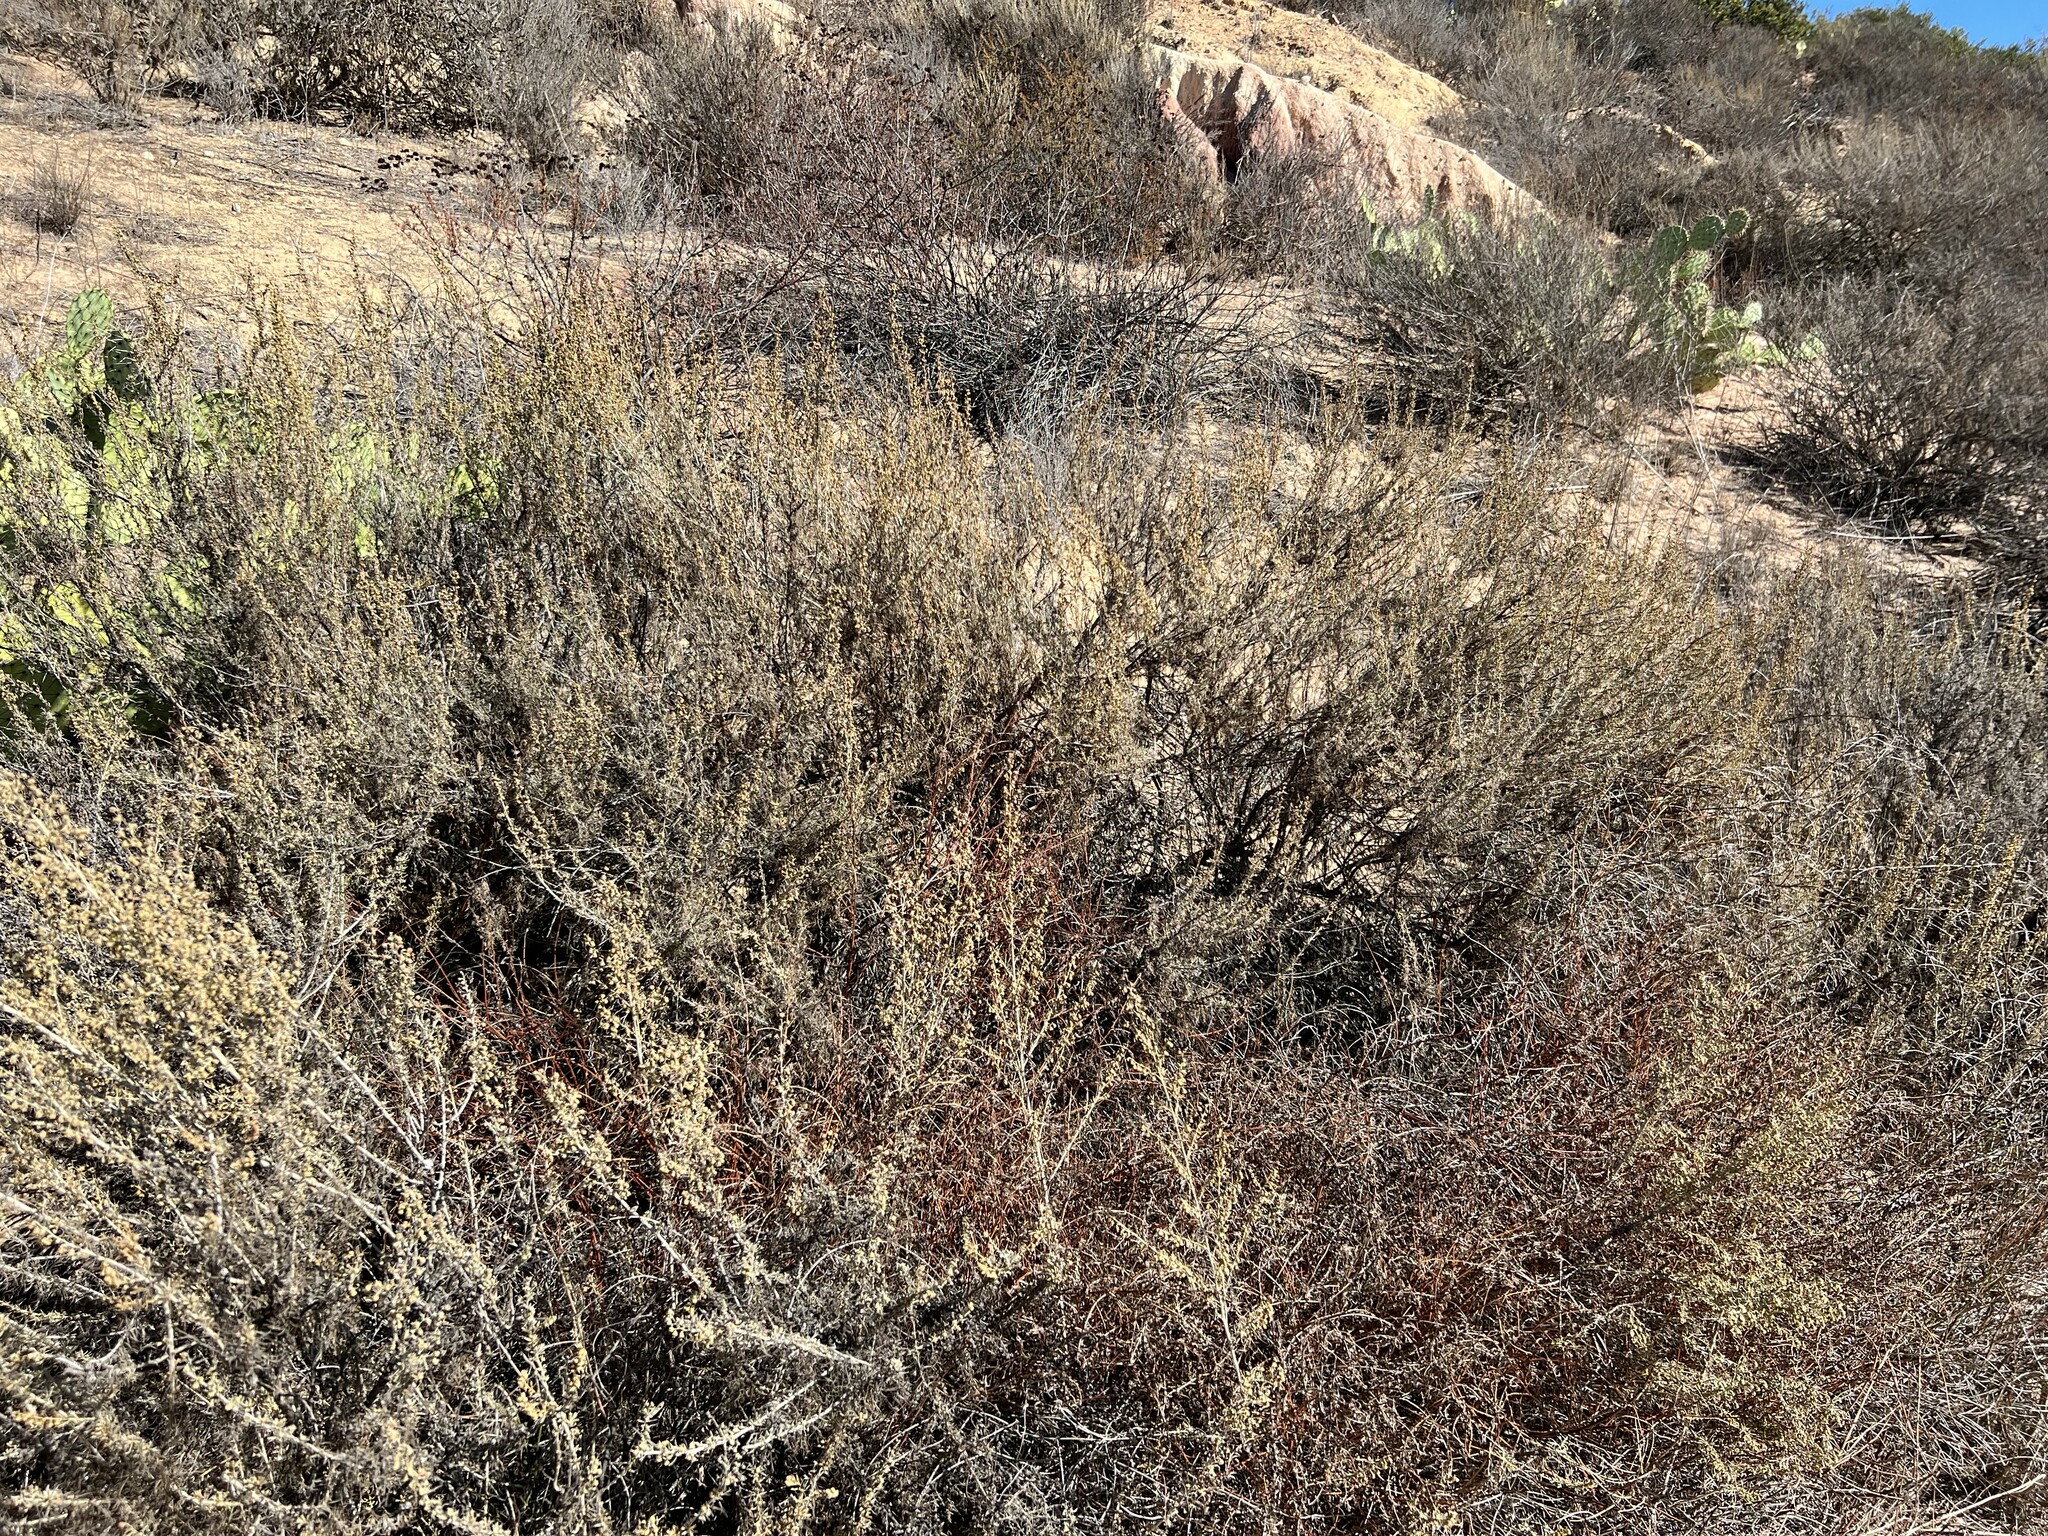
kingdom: Plantae
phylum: Tracheophyta
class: Magnoliopsida
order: Asterales
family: Asteraceae
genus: Artemisia
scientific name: Artemisia californica
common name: California sagebrush
